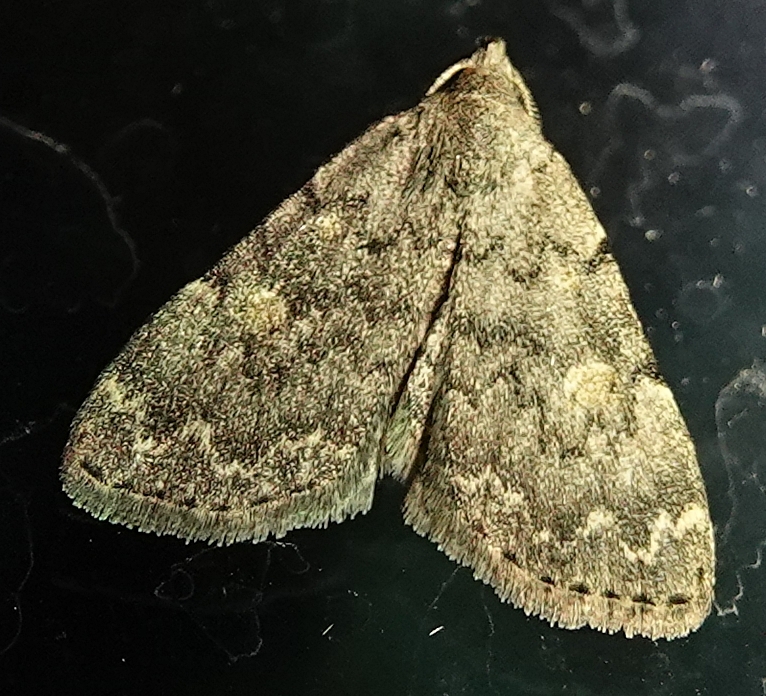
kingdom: Animalia
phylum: Arthropoda
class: Insecta
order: Lepidoptera
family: Erebidae
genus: Idia
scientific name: Idia aemula
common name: Common idia moth
